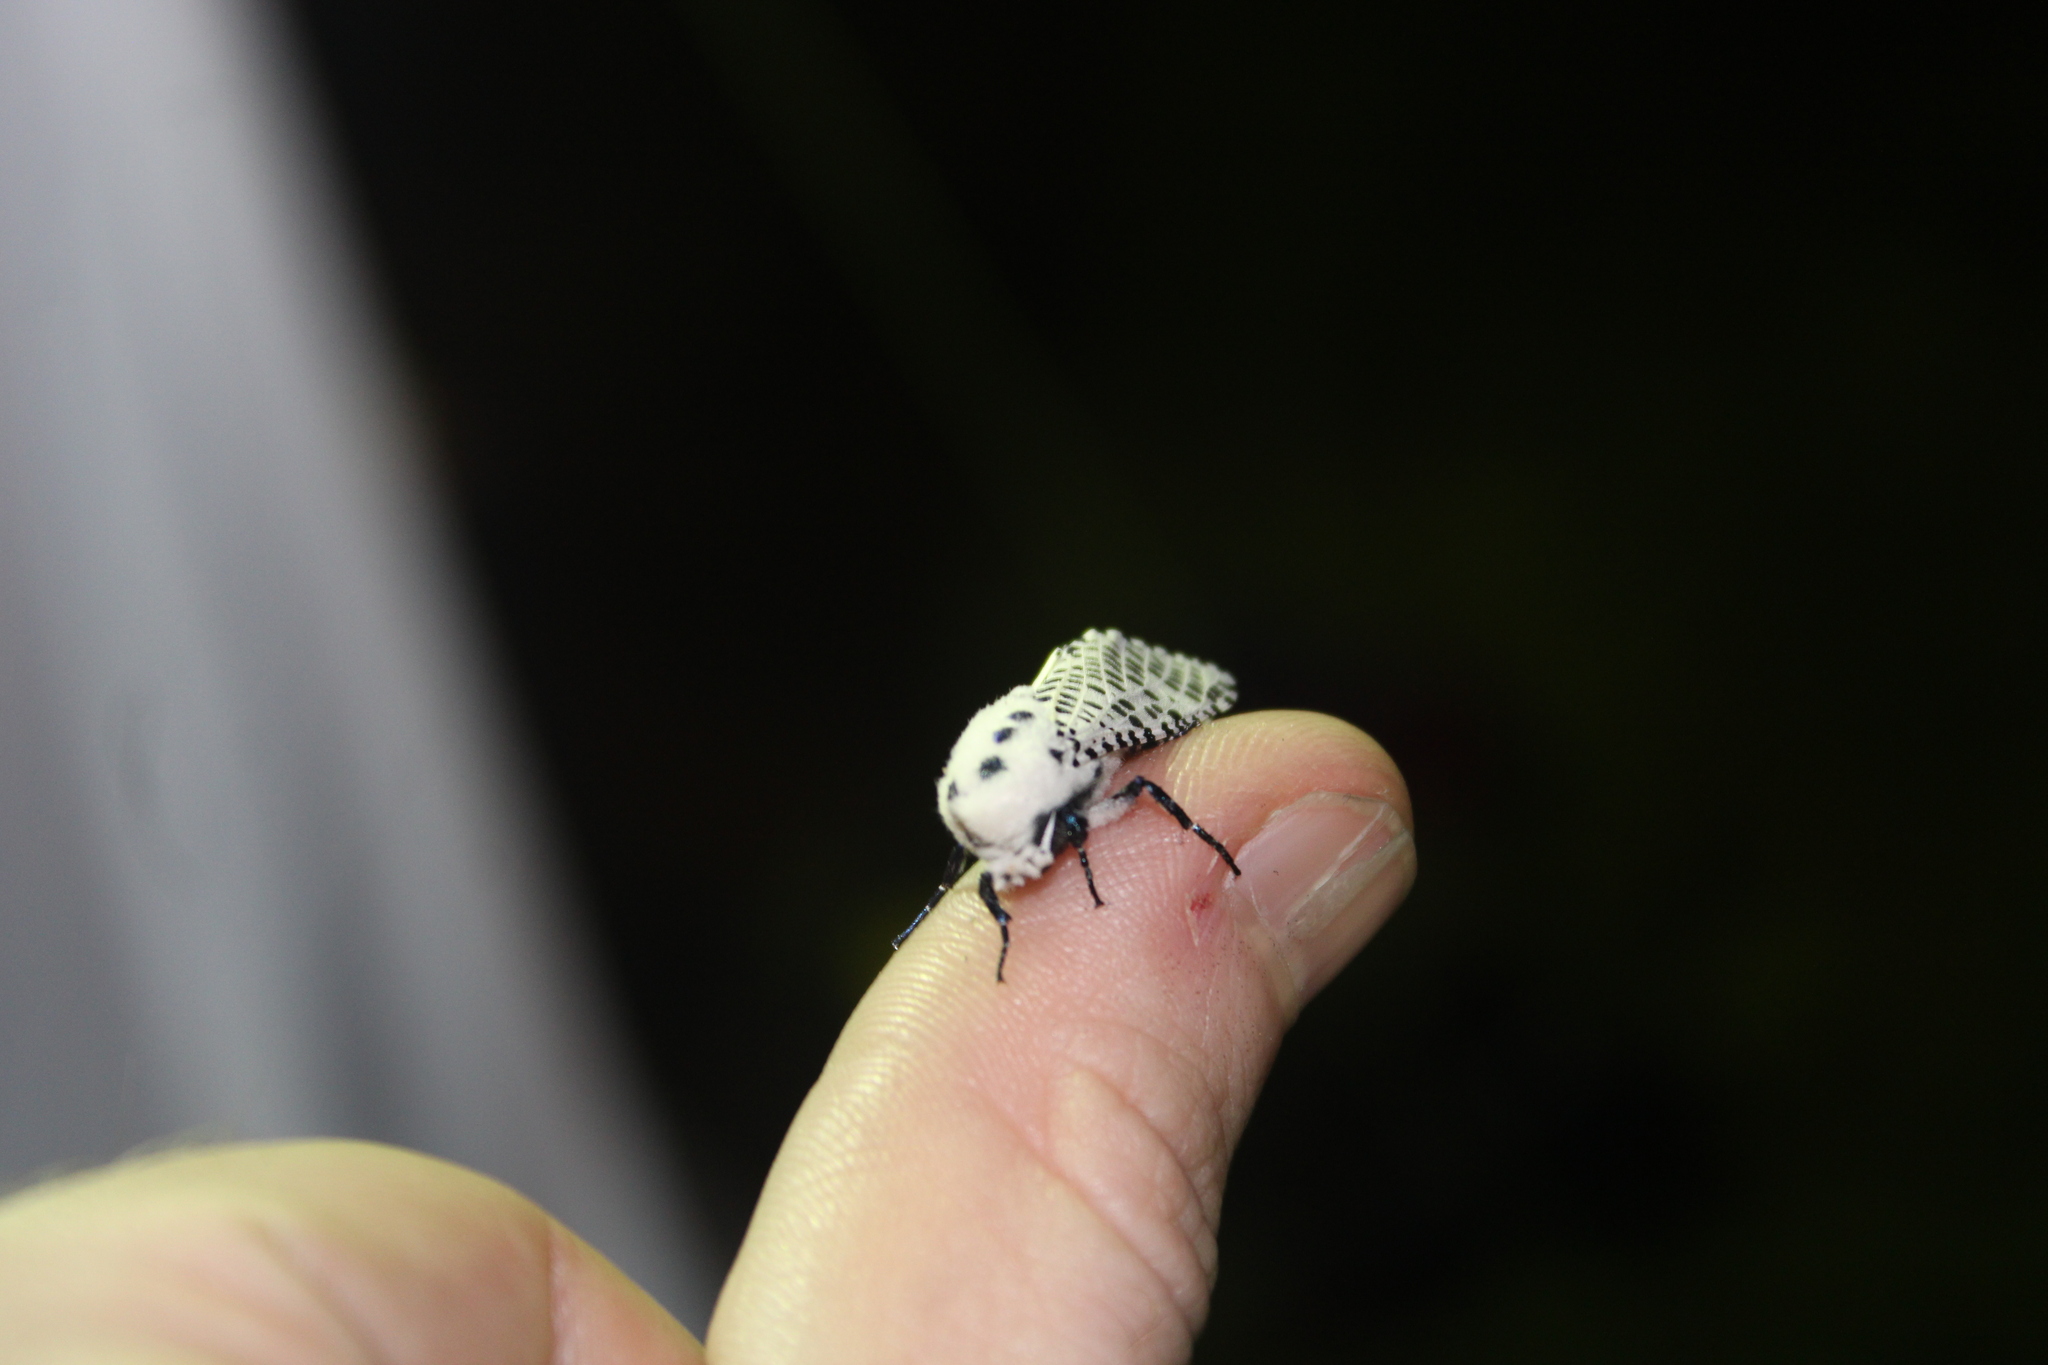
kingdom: Animalia
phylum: Arthropoda
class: Insecta
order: Lepidoptera
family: Cossidae
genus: Zeuzera
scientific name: Zeuzera pyrina
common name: Leopard moth
